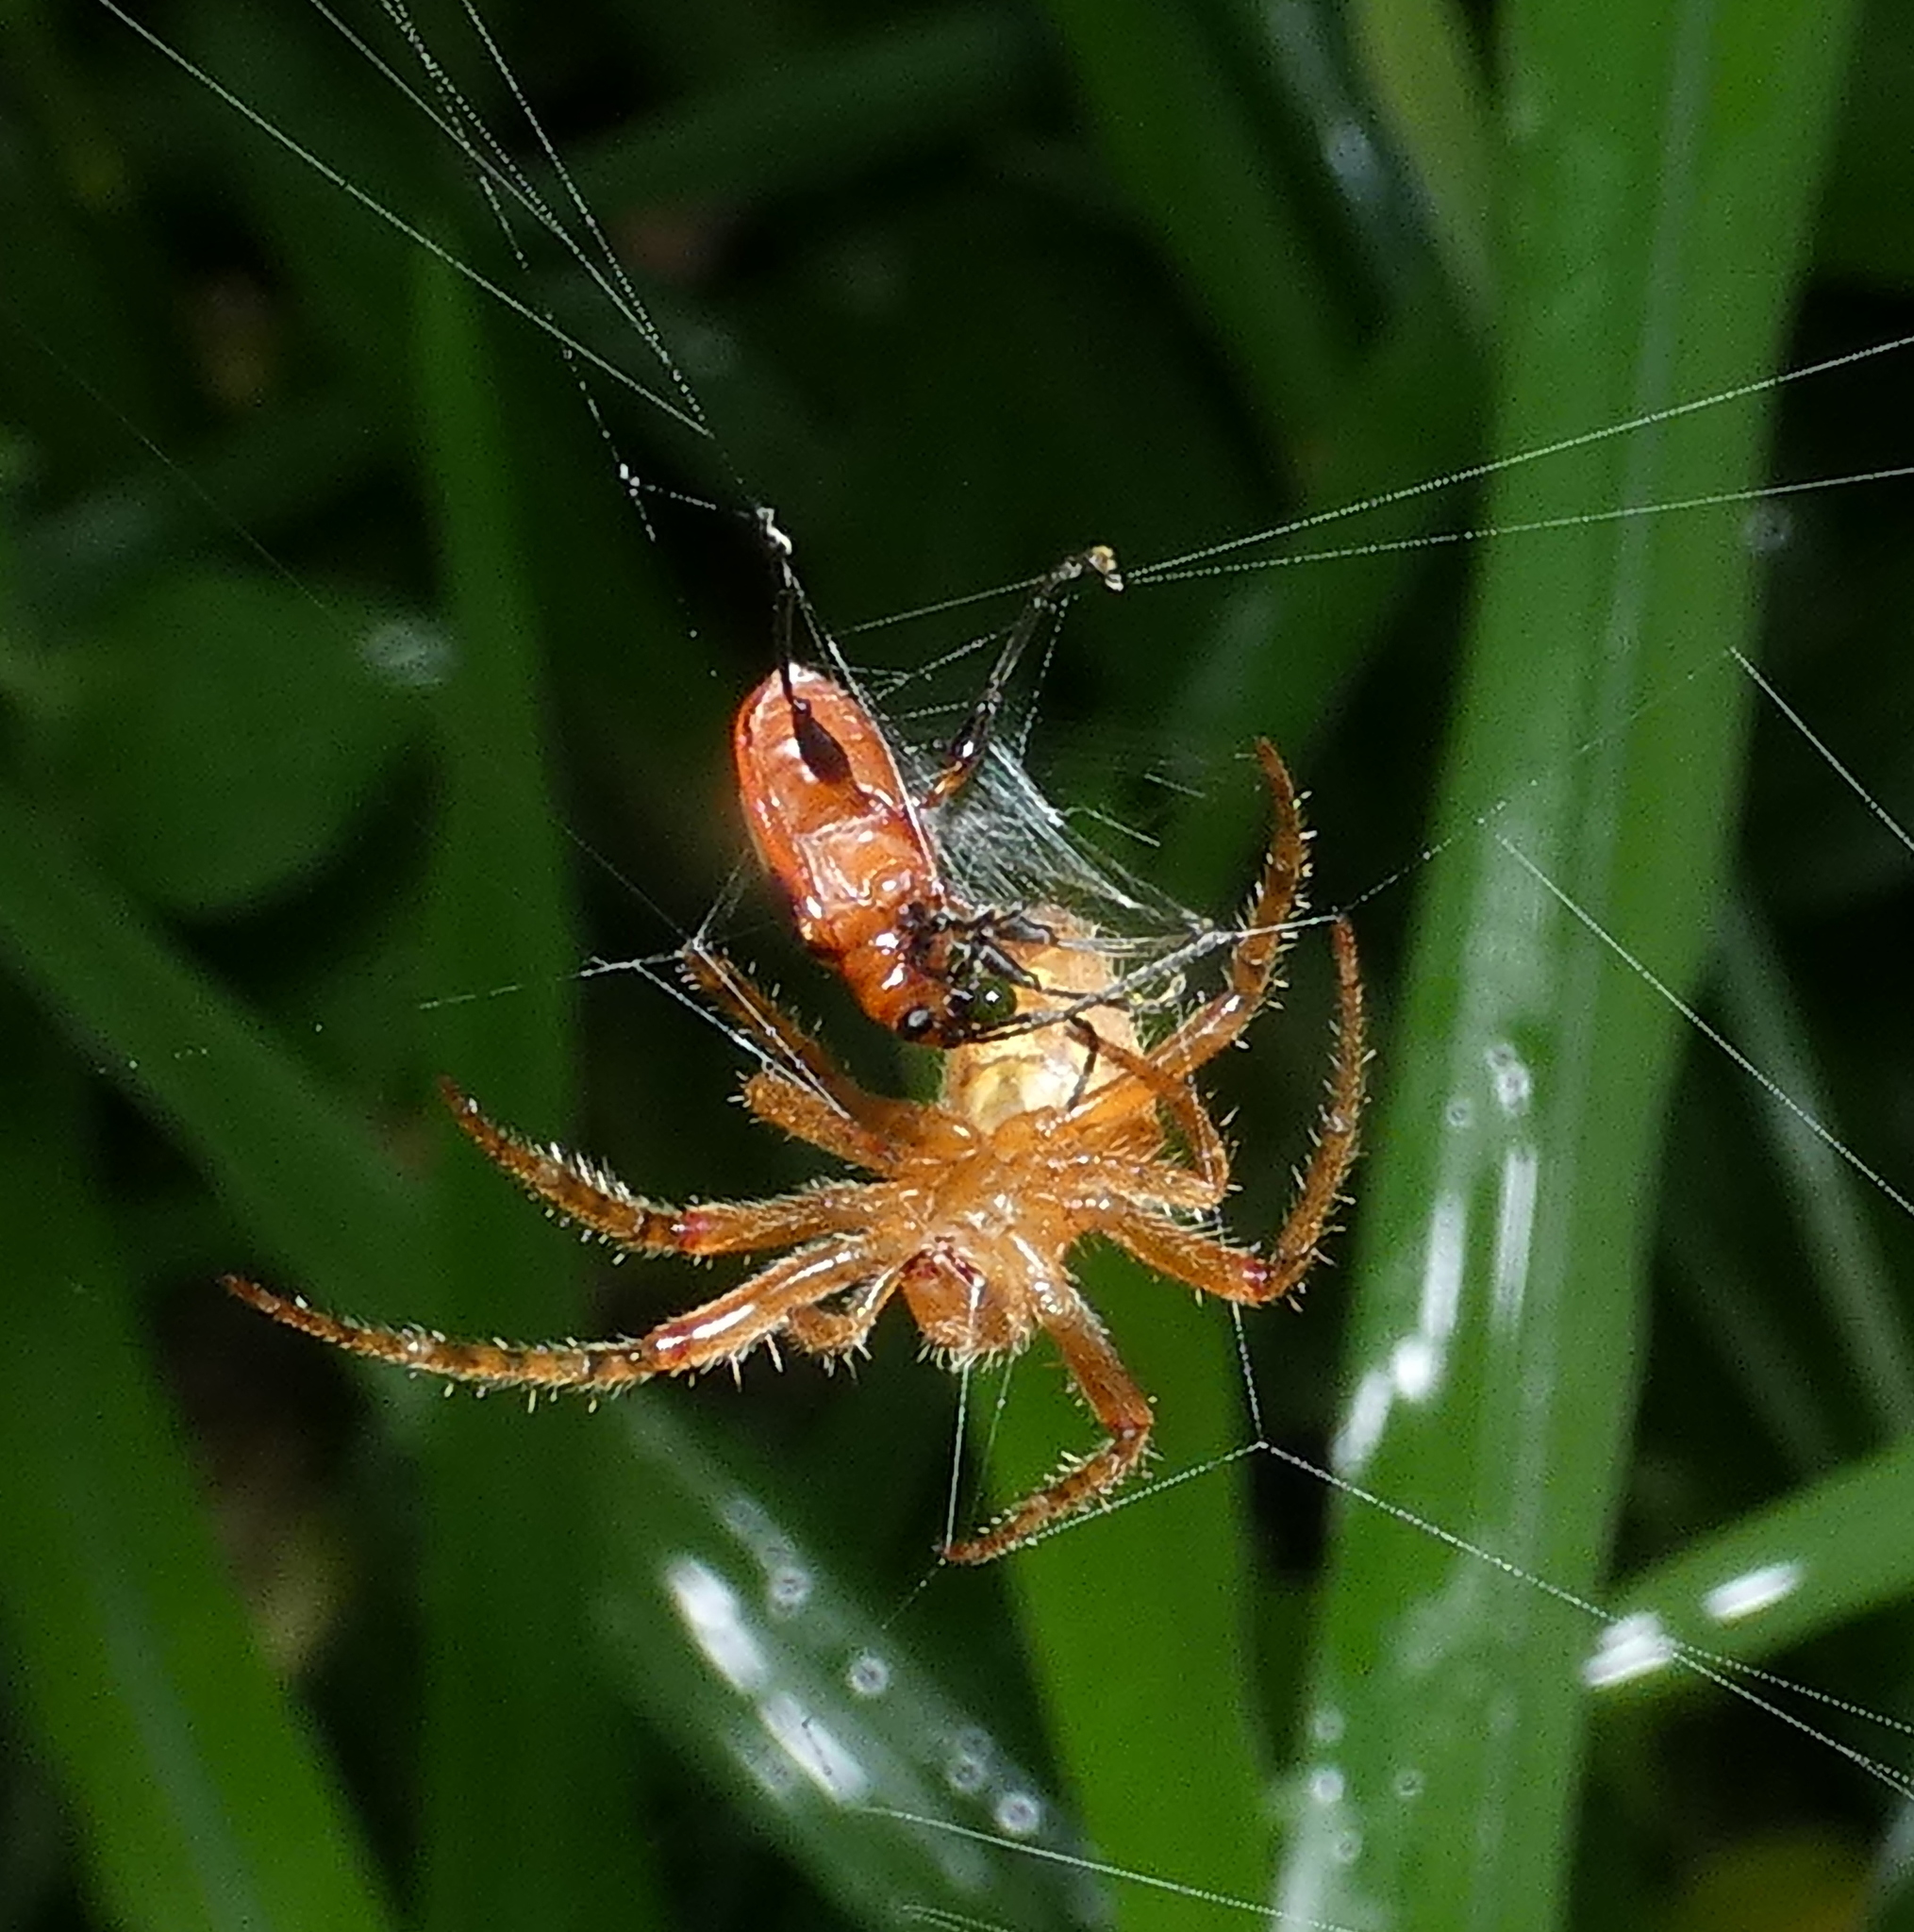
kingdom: Animalia
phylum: Arthropoda
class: Arachnida
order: Araneae
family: Araneidae
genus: Eriophora
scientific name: Eriophora edax
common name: Orb weavers
